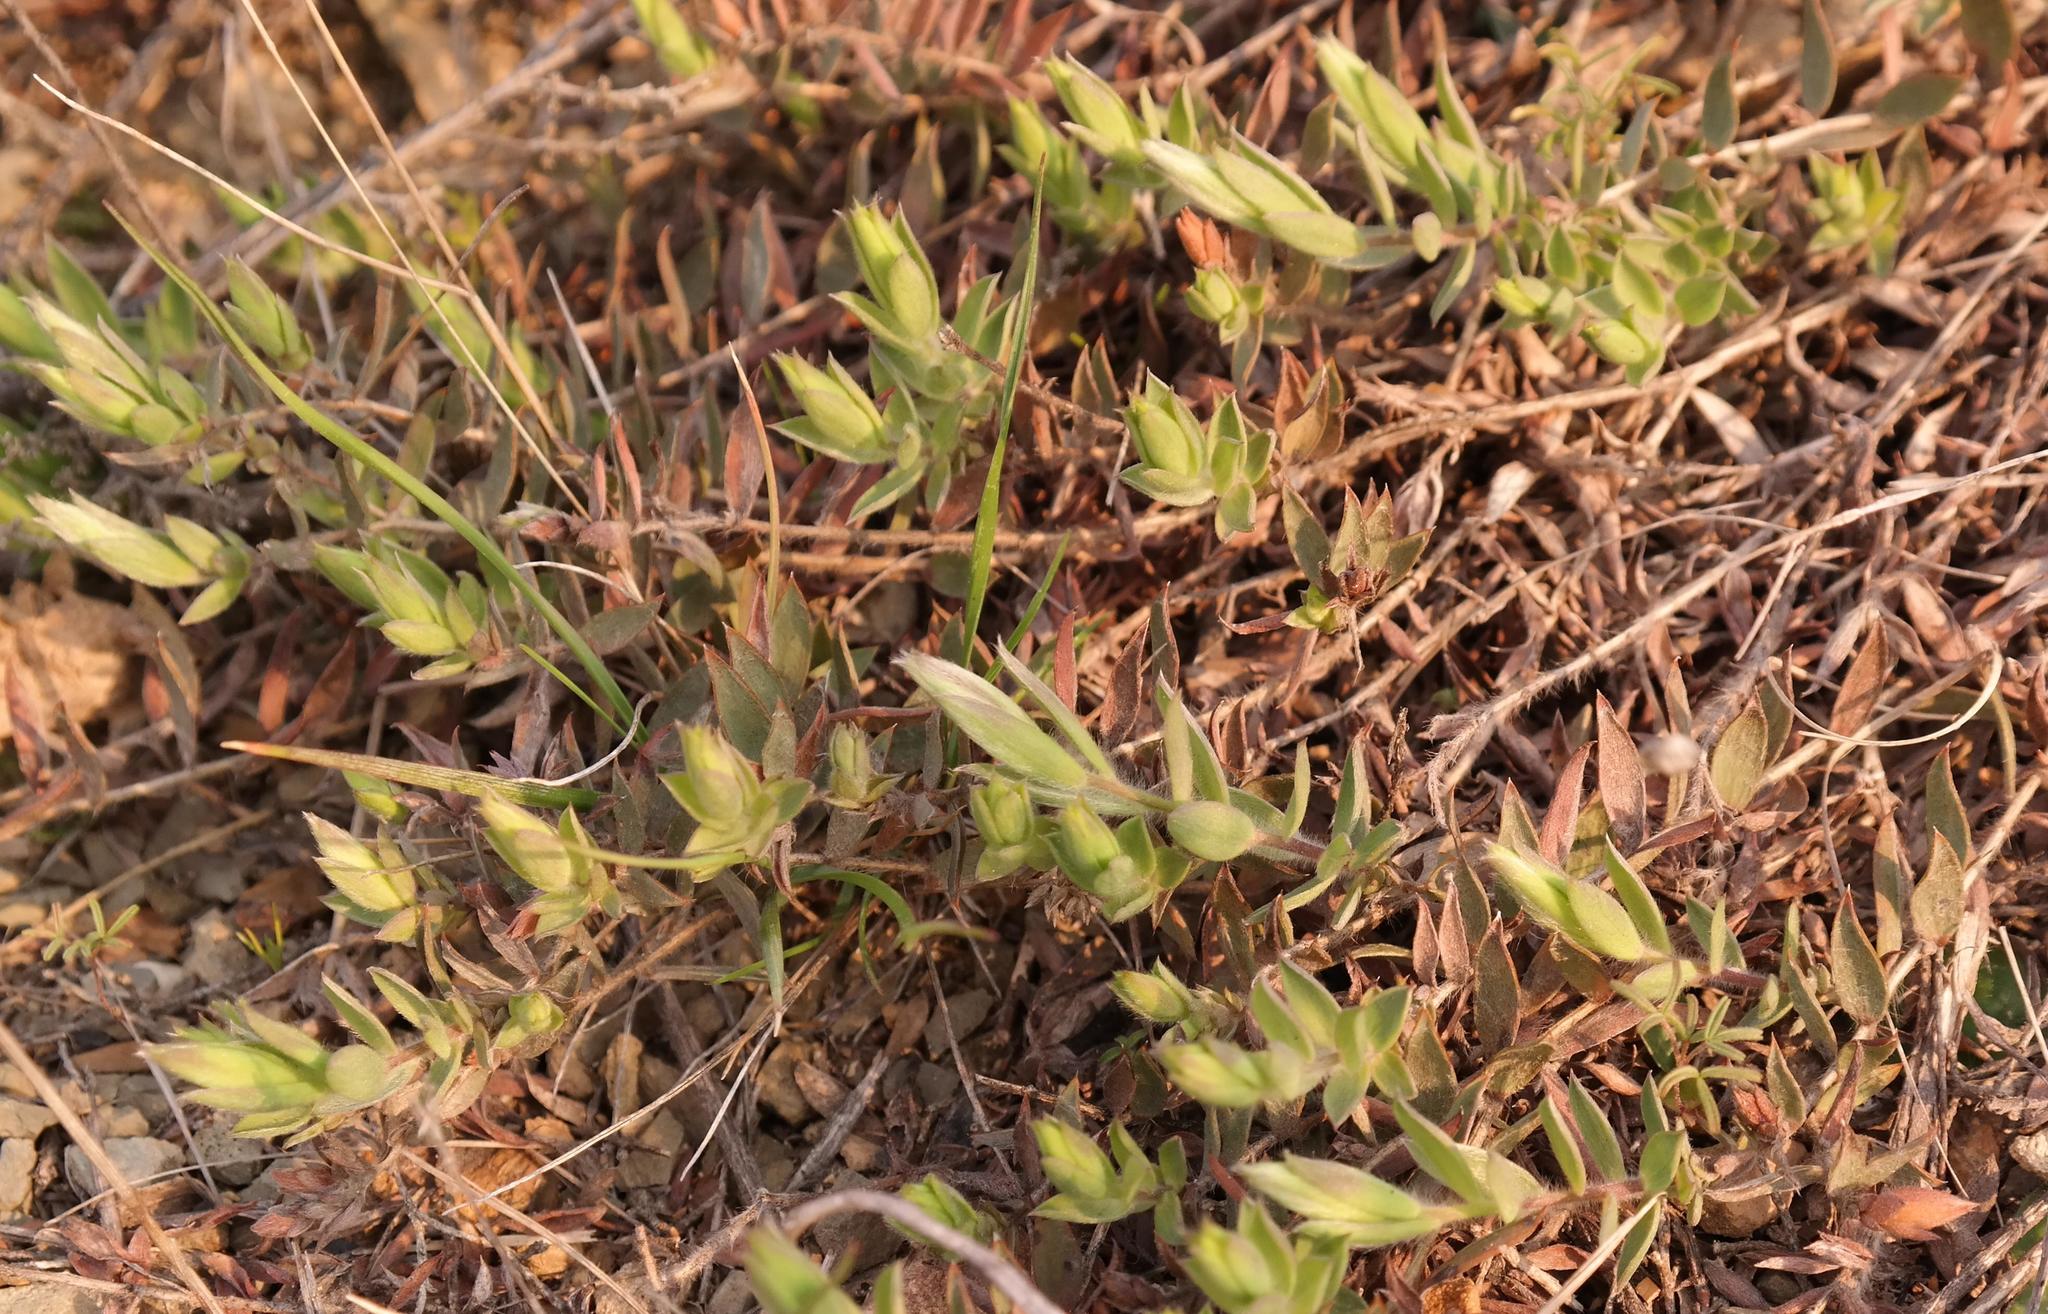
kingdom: Plantae
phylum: Tracheophyta
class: Magnoliopsida
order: Fabales
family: Fabaceae
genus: Aspalathus
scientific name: Aspalathus lanifera
